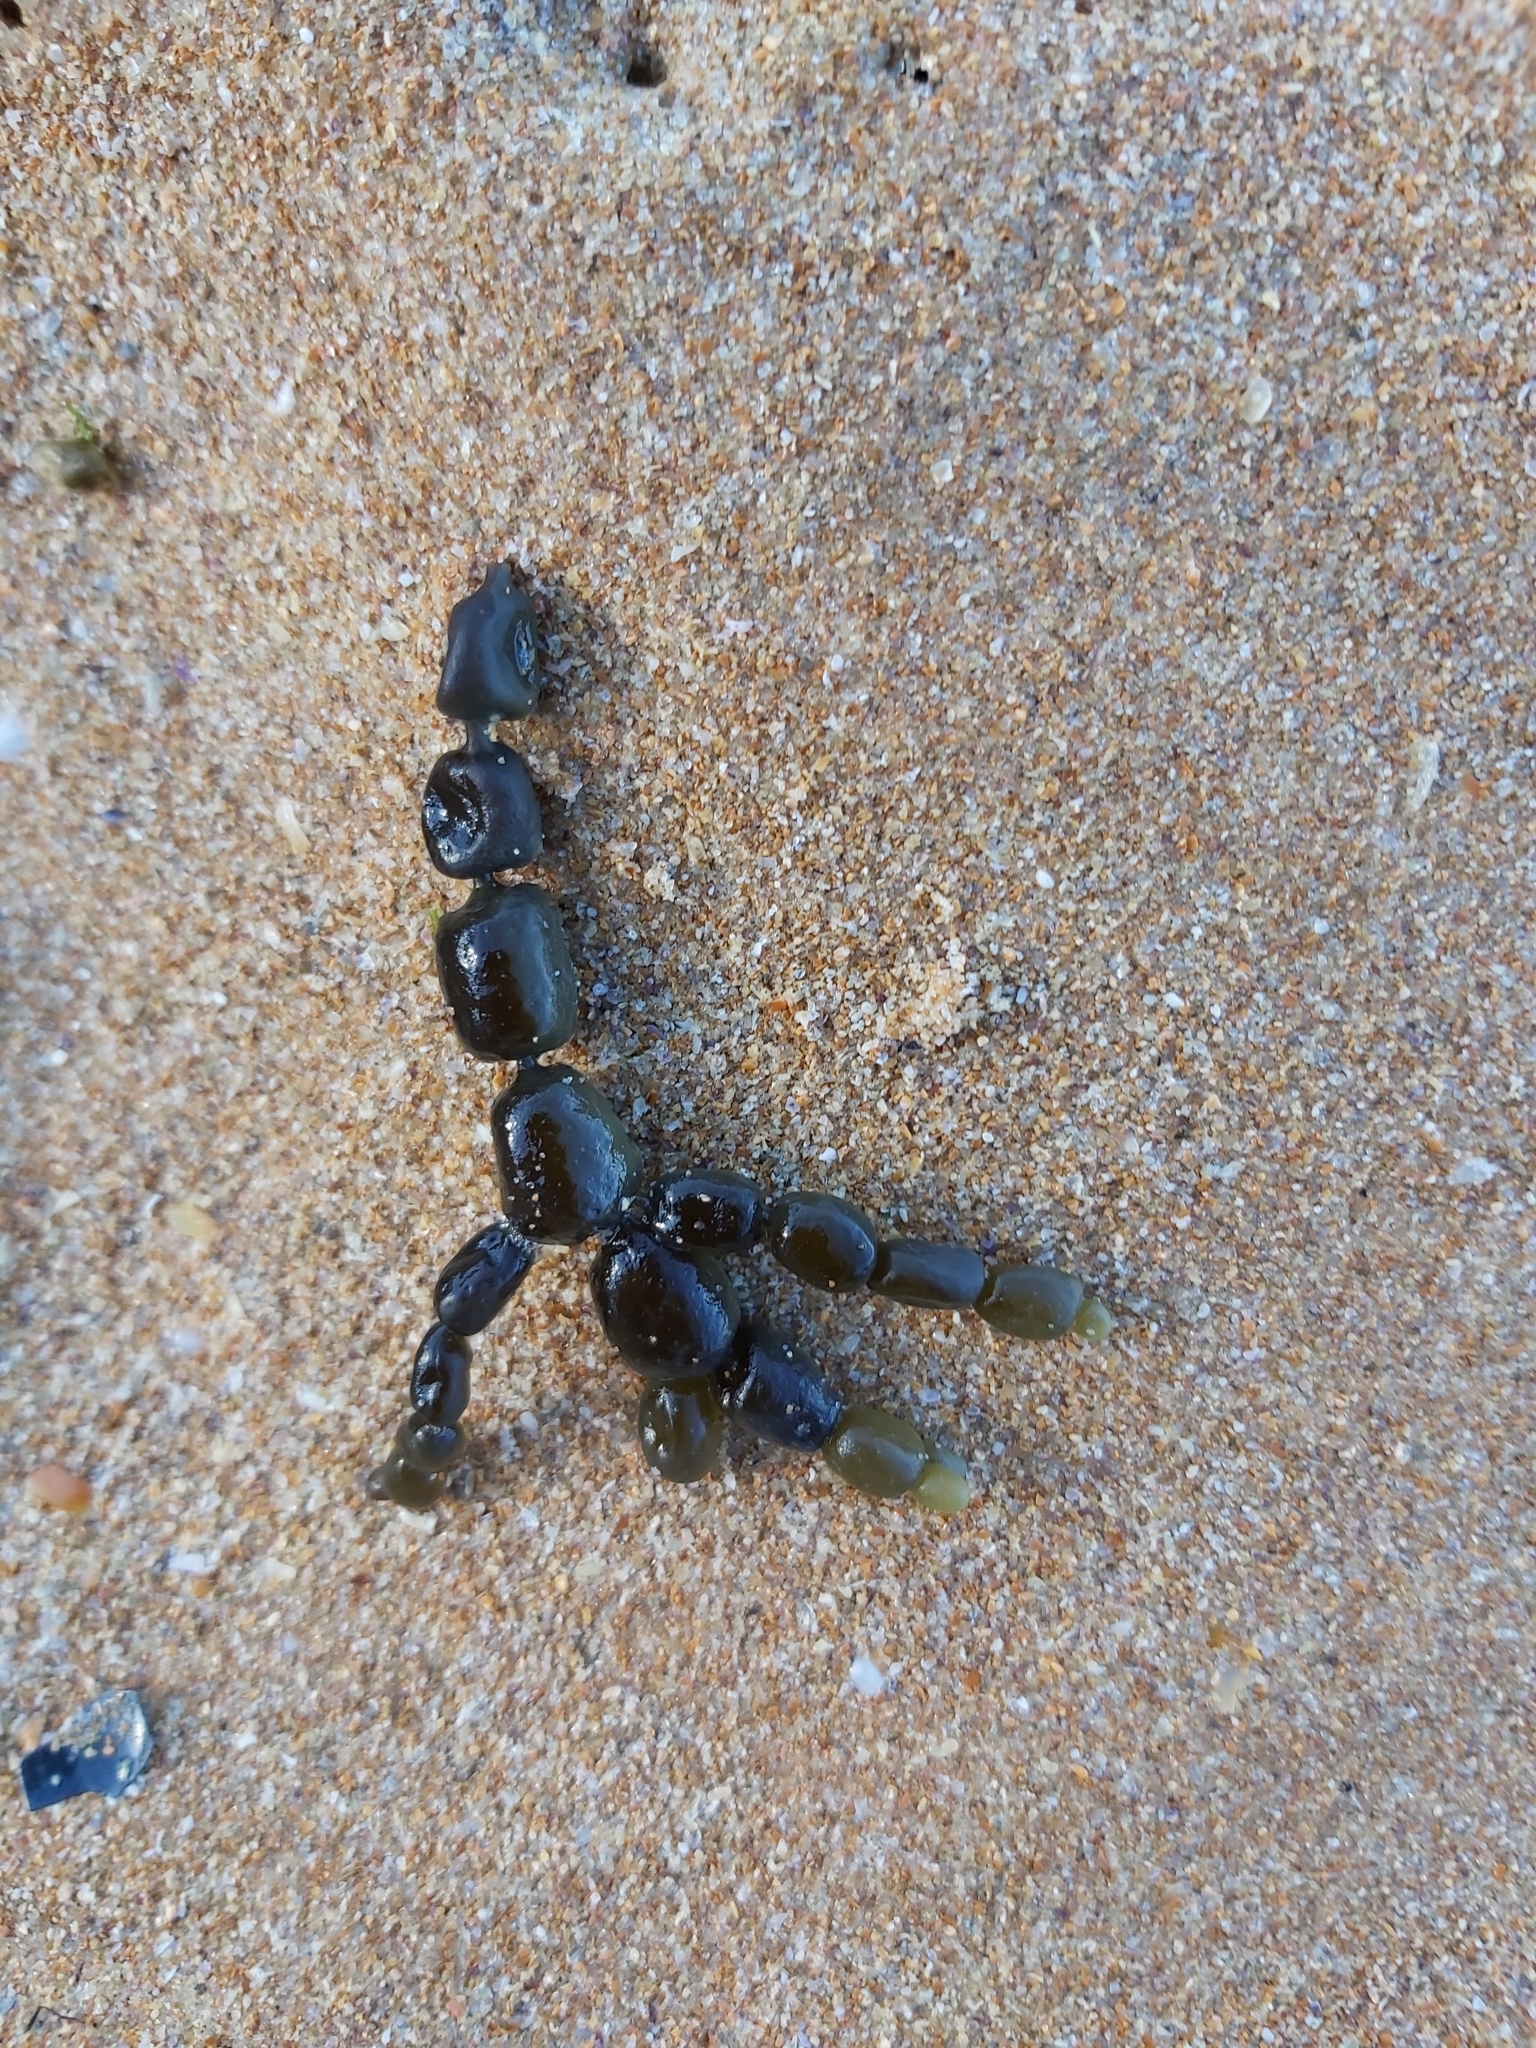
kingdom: Chromista
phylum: Ochrophyta
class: Phaeophyceae
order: Fucales
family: Hormosiraceae
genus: Hormosira
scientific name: Hormosira banksii
